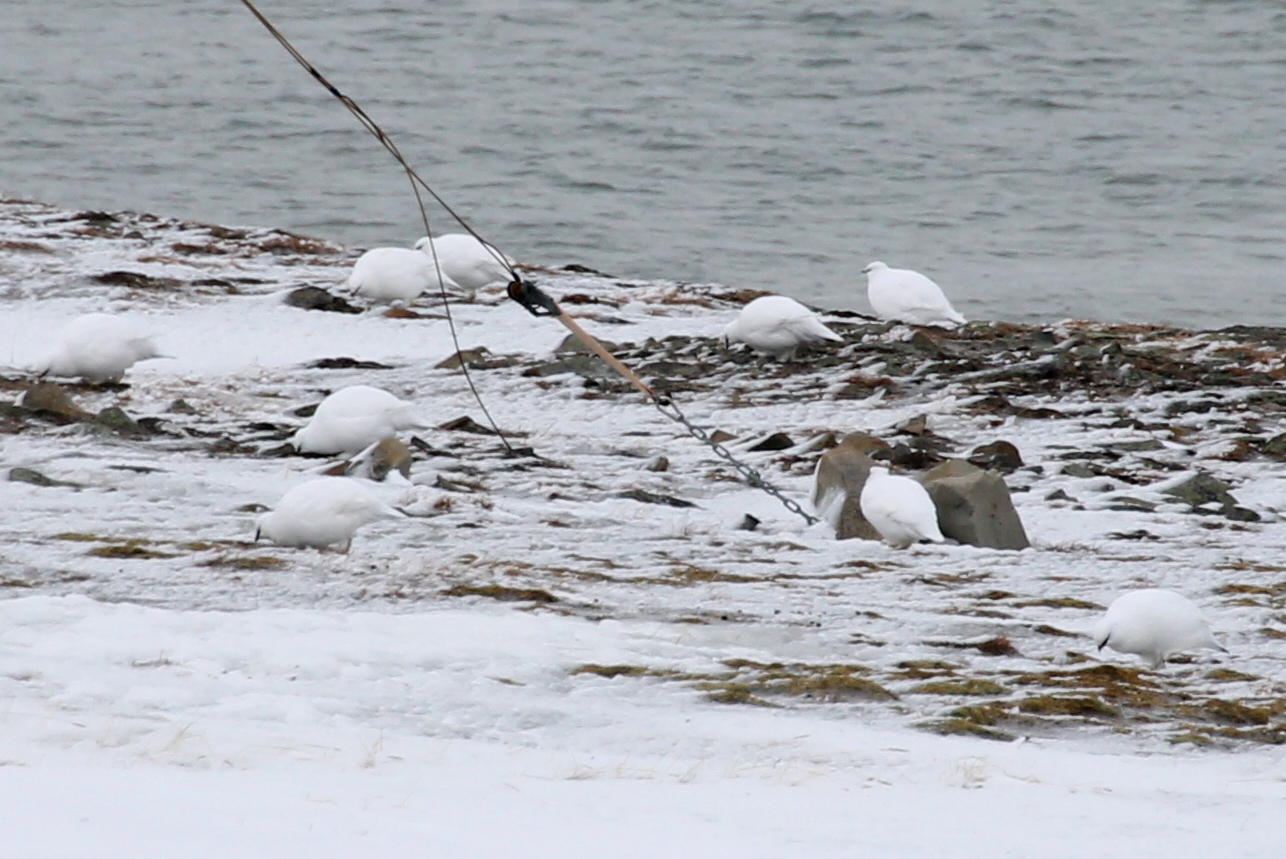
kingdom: Animalia
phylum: Chordata
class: Aves
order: Galliformes
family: Phasianidae
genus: Lagopus
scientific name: Lagopus muta
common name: Rock ptarmigan
